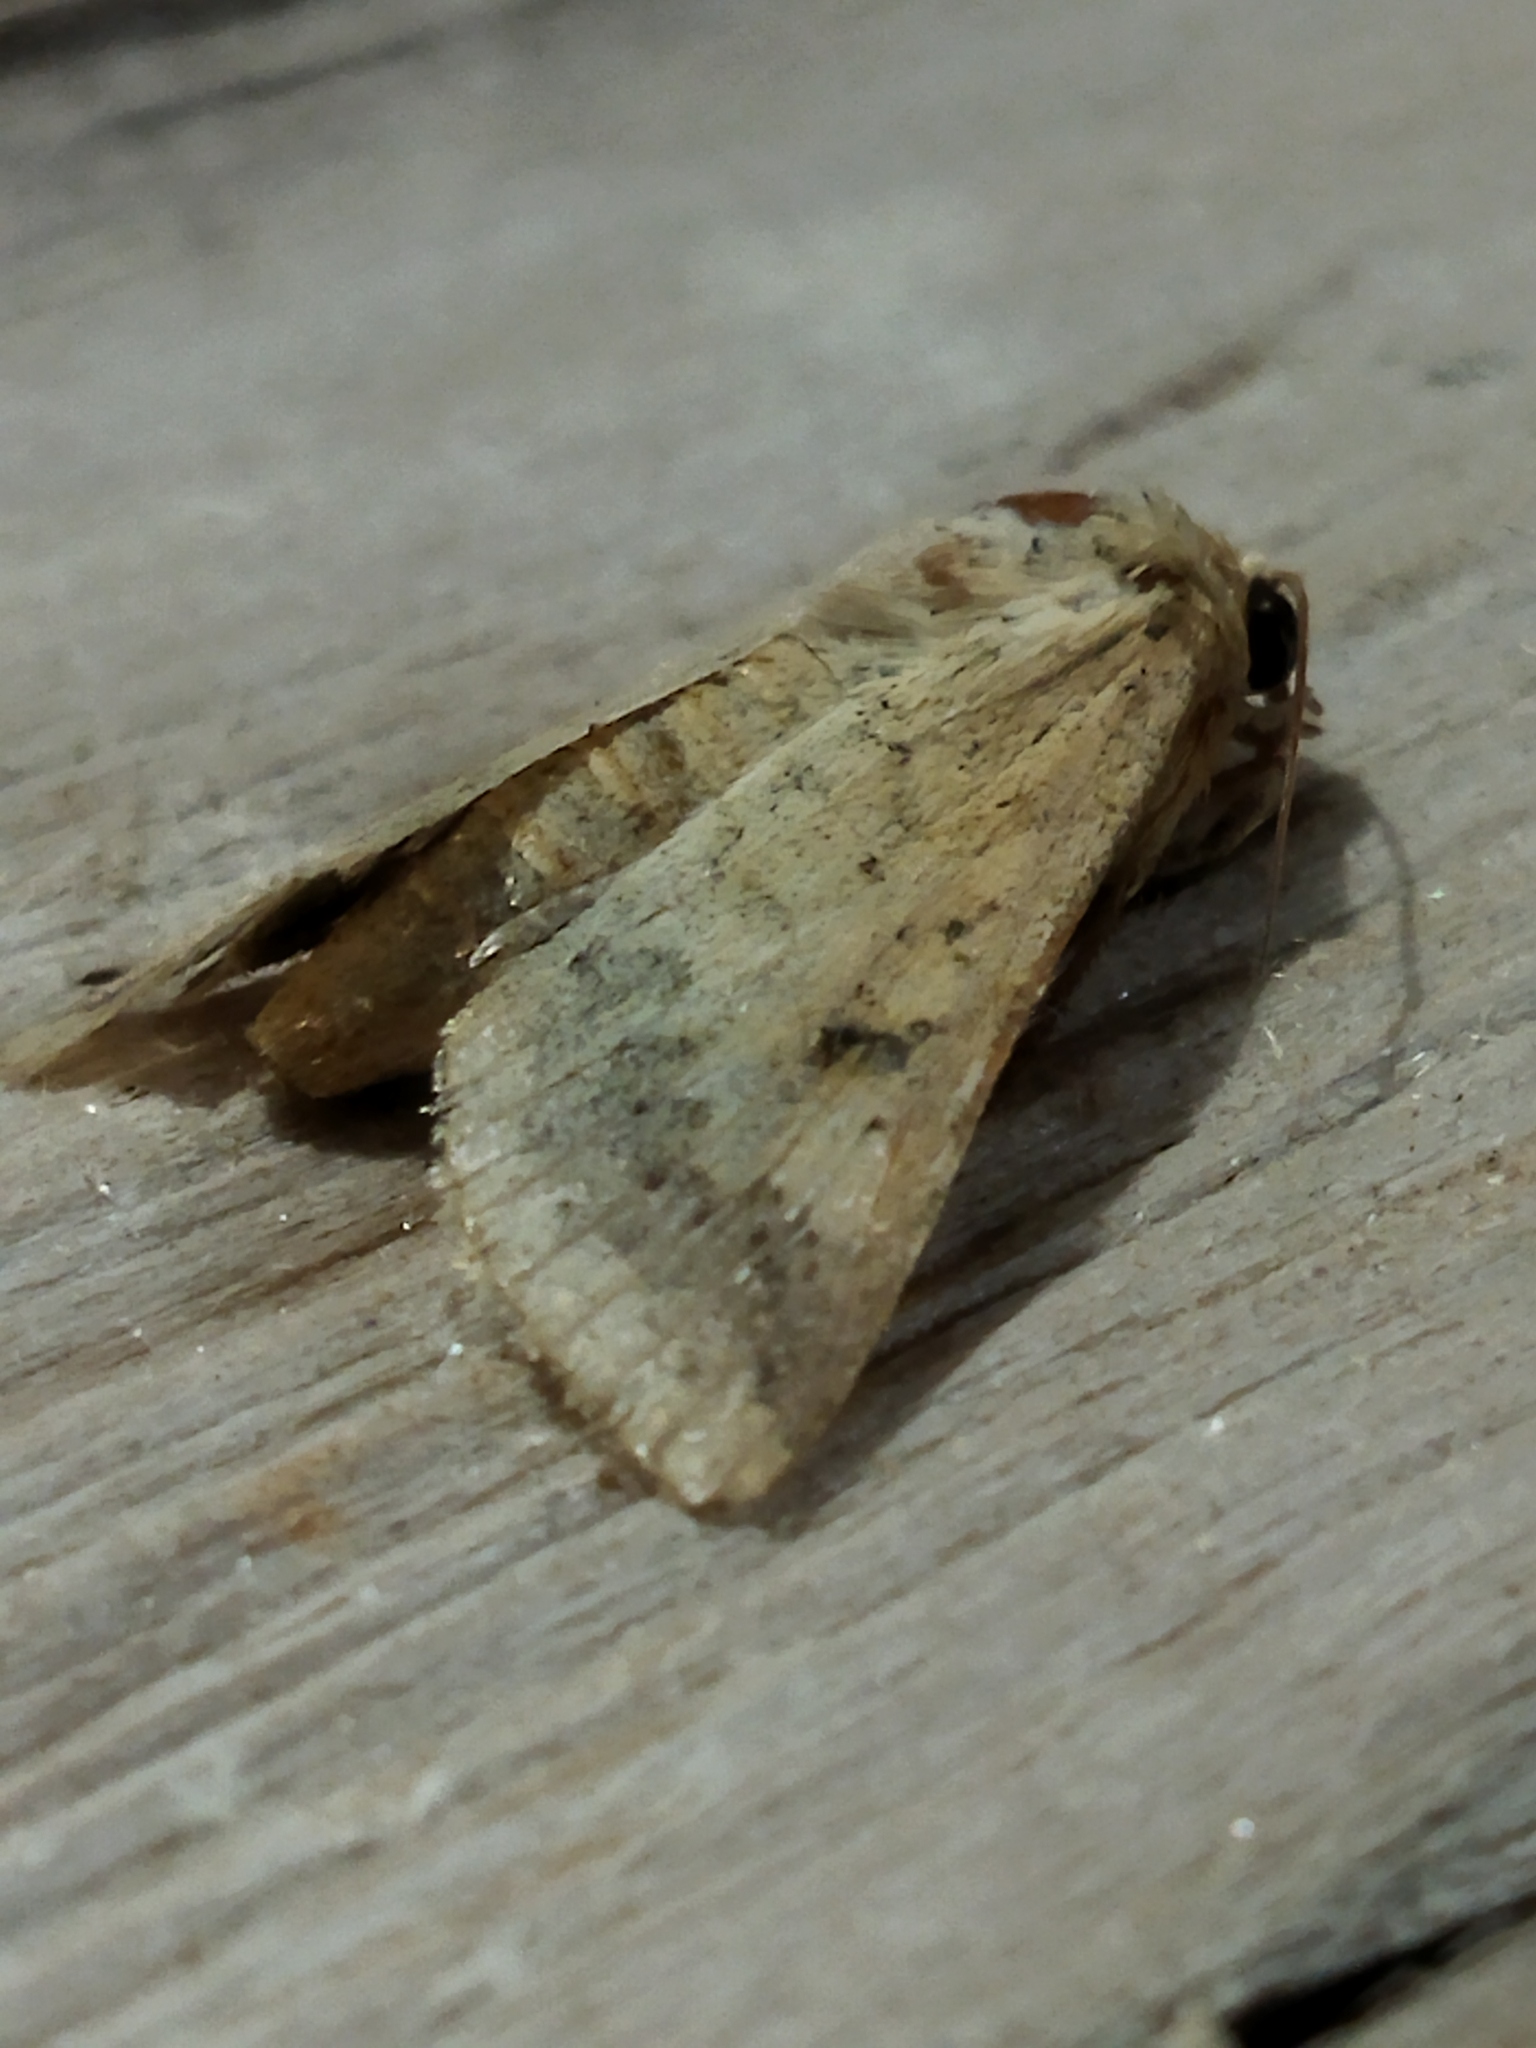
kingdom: Animalia
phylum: Arthropoda
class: Insecta
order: Lepidoptera
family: Noctuidae
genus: Helicoverpa
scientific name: Helicoverpa armigera
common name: Cotton bollworm
